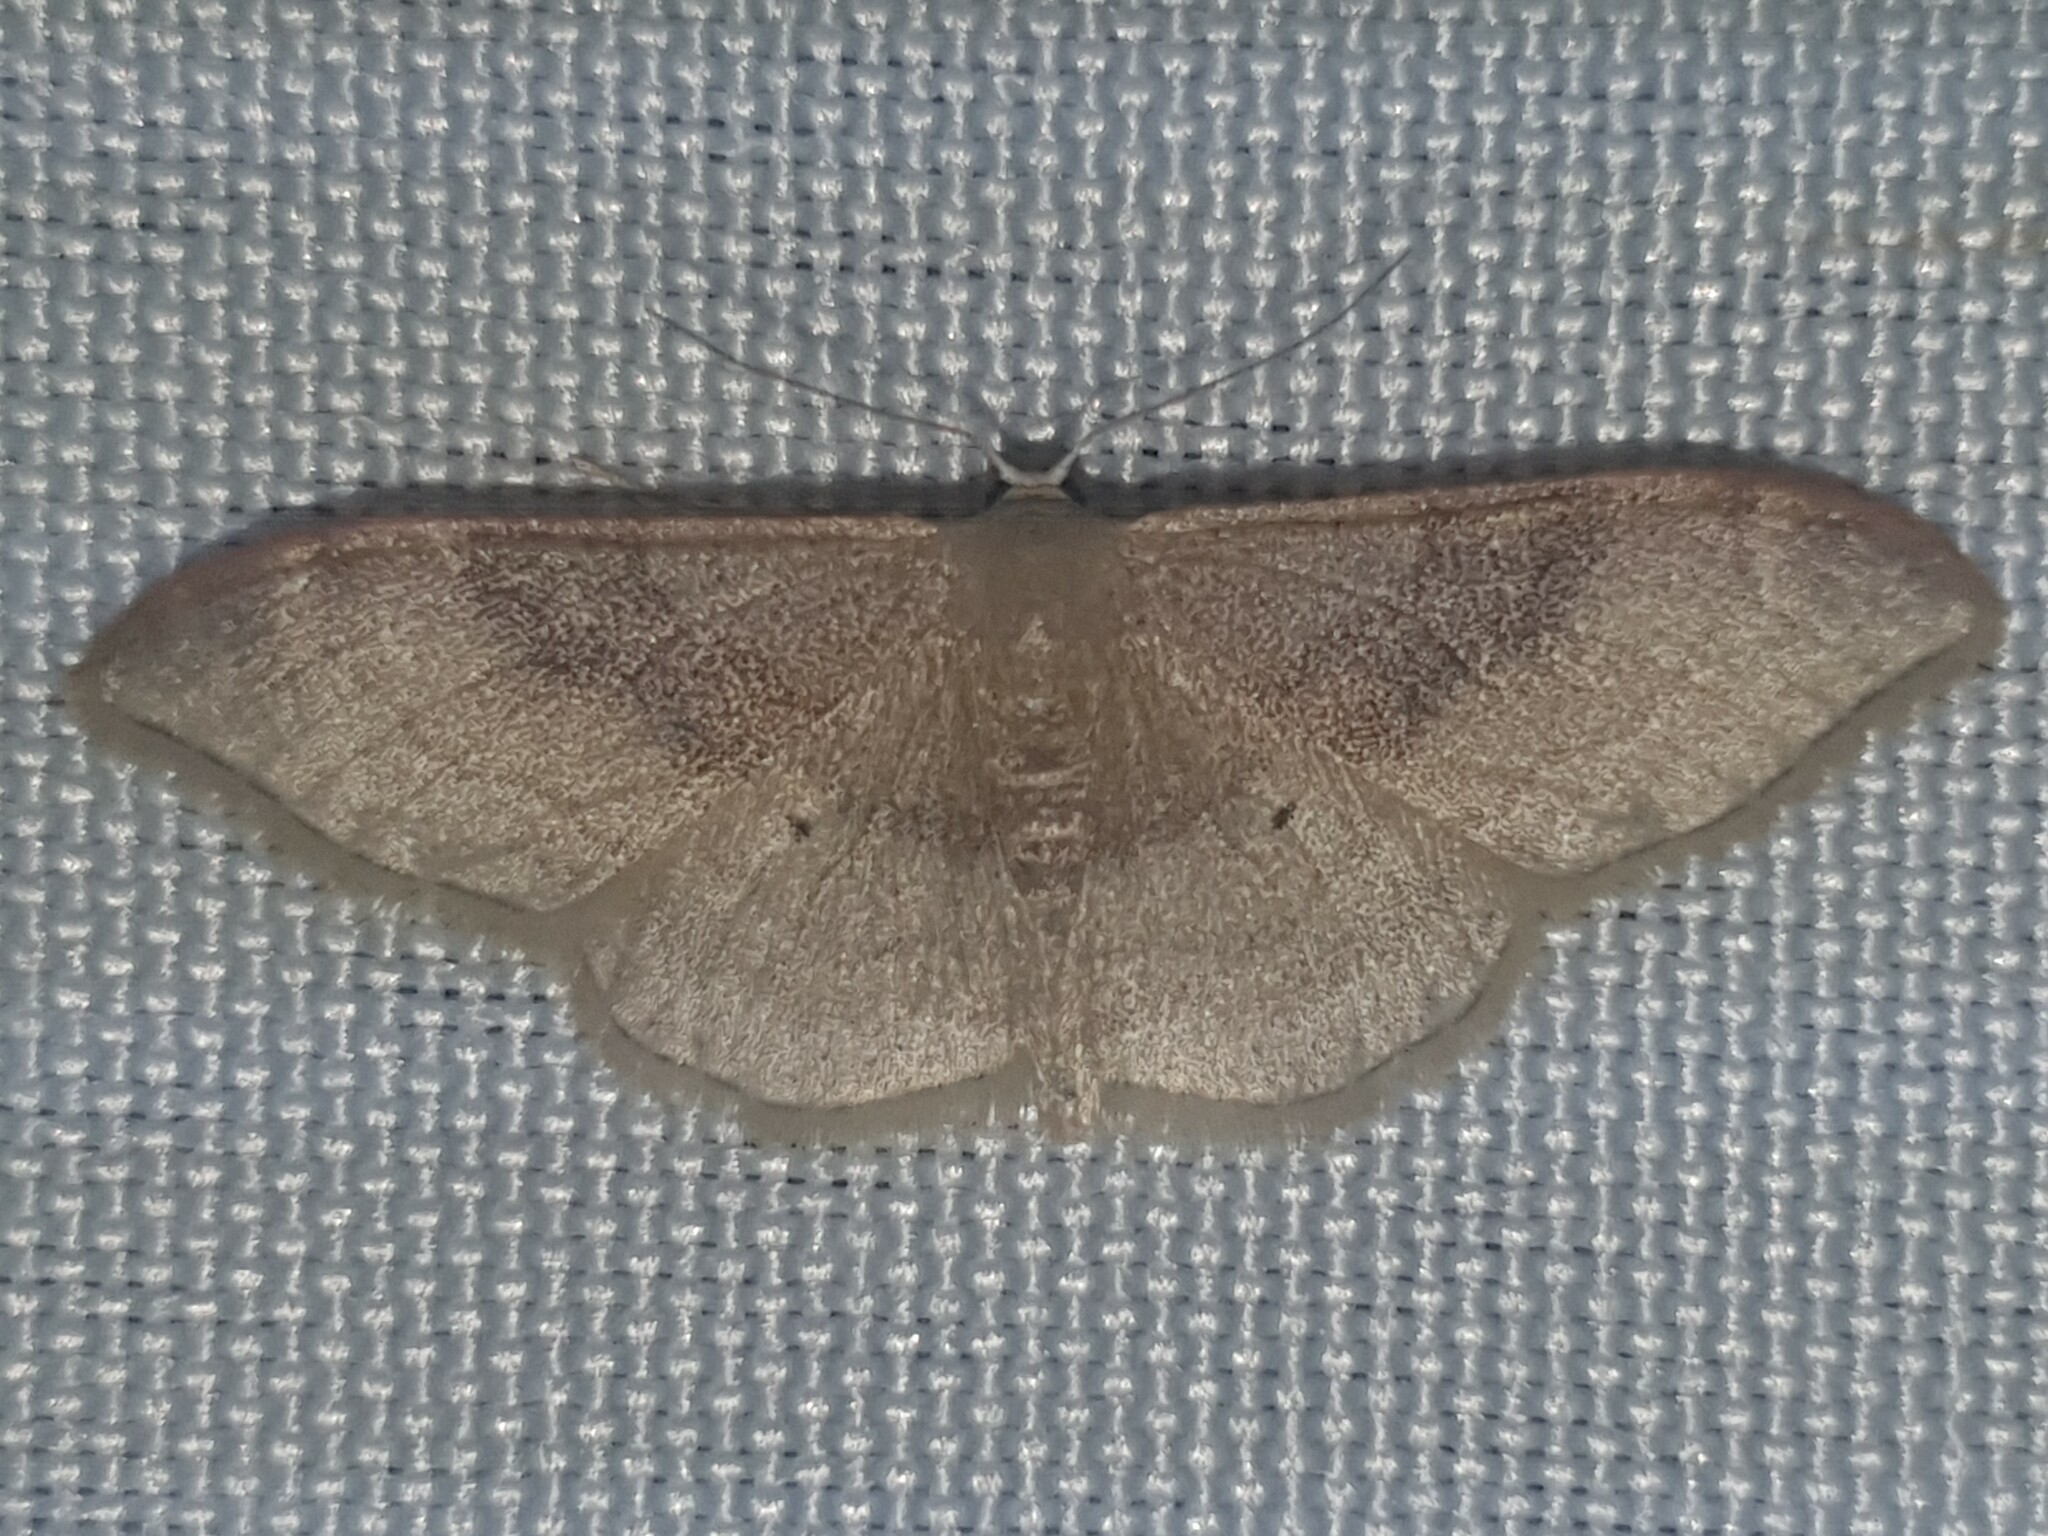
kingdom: Animalia
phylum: Arthropoda
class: Insecta
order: Lepidoptera
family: Geometridae
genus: Idaea
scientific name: Idaea degeneraria
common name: Portland ribbon wave
